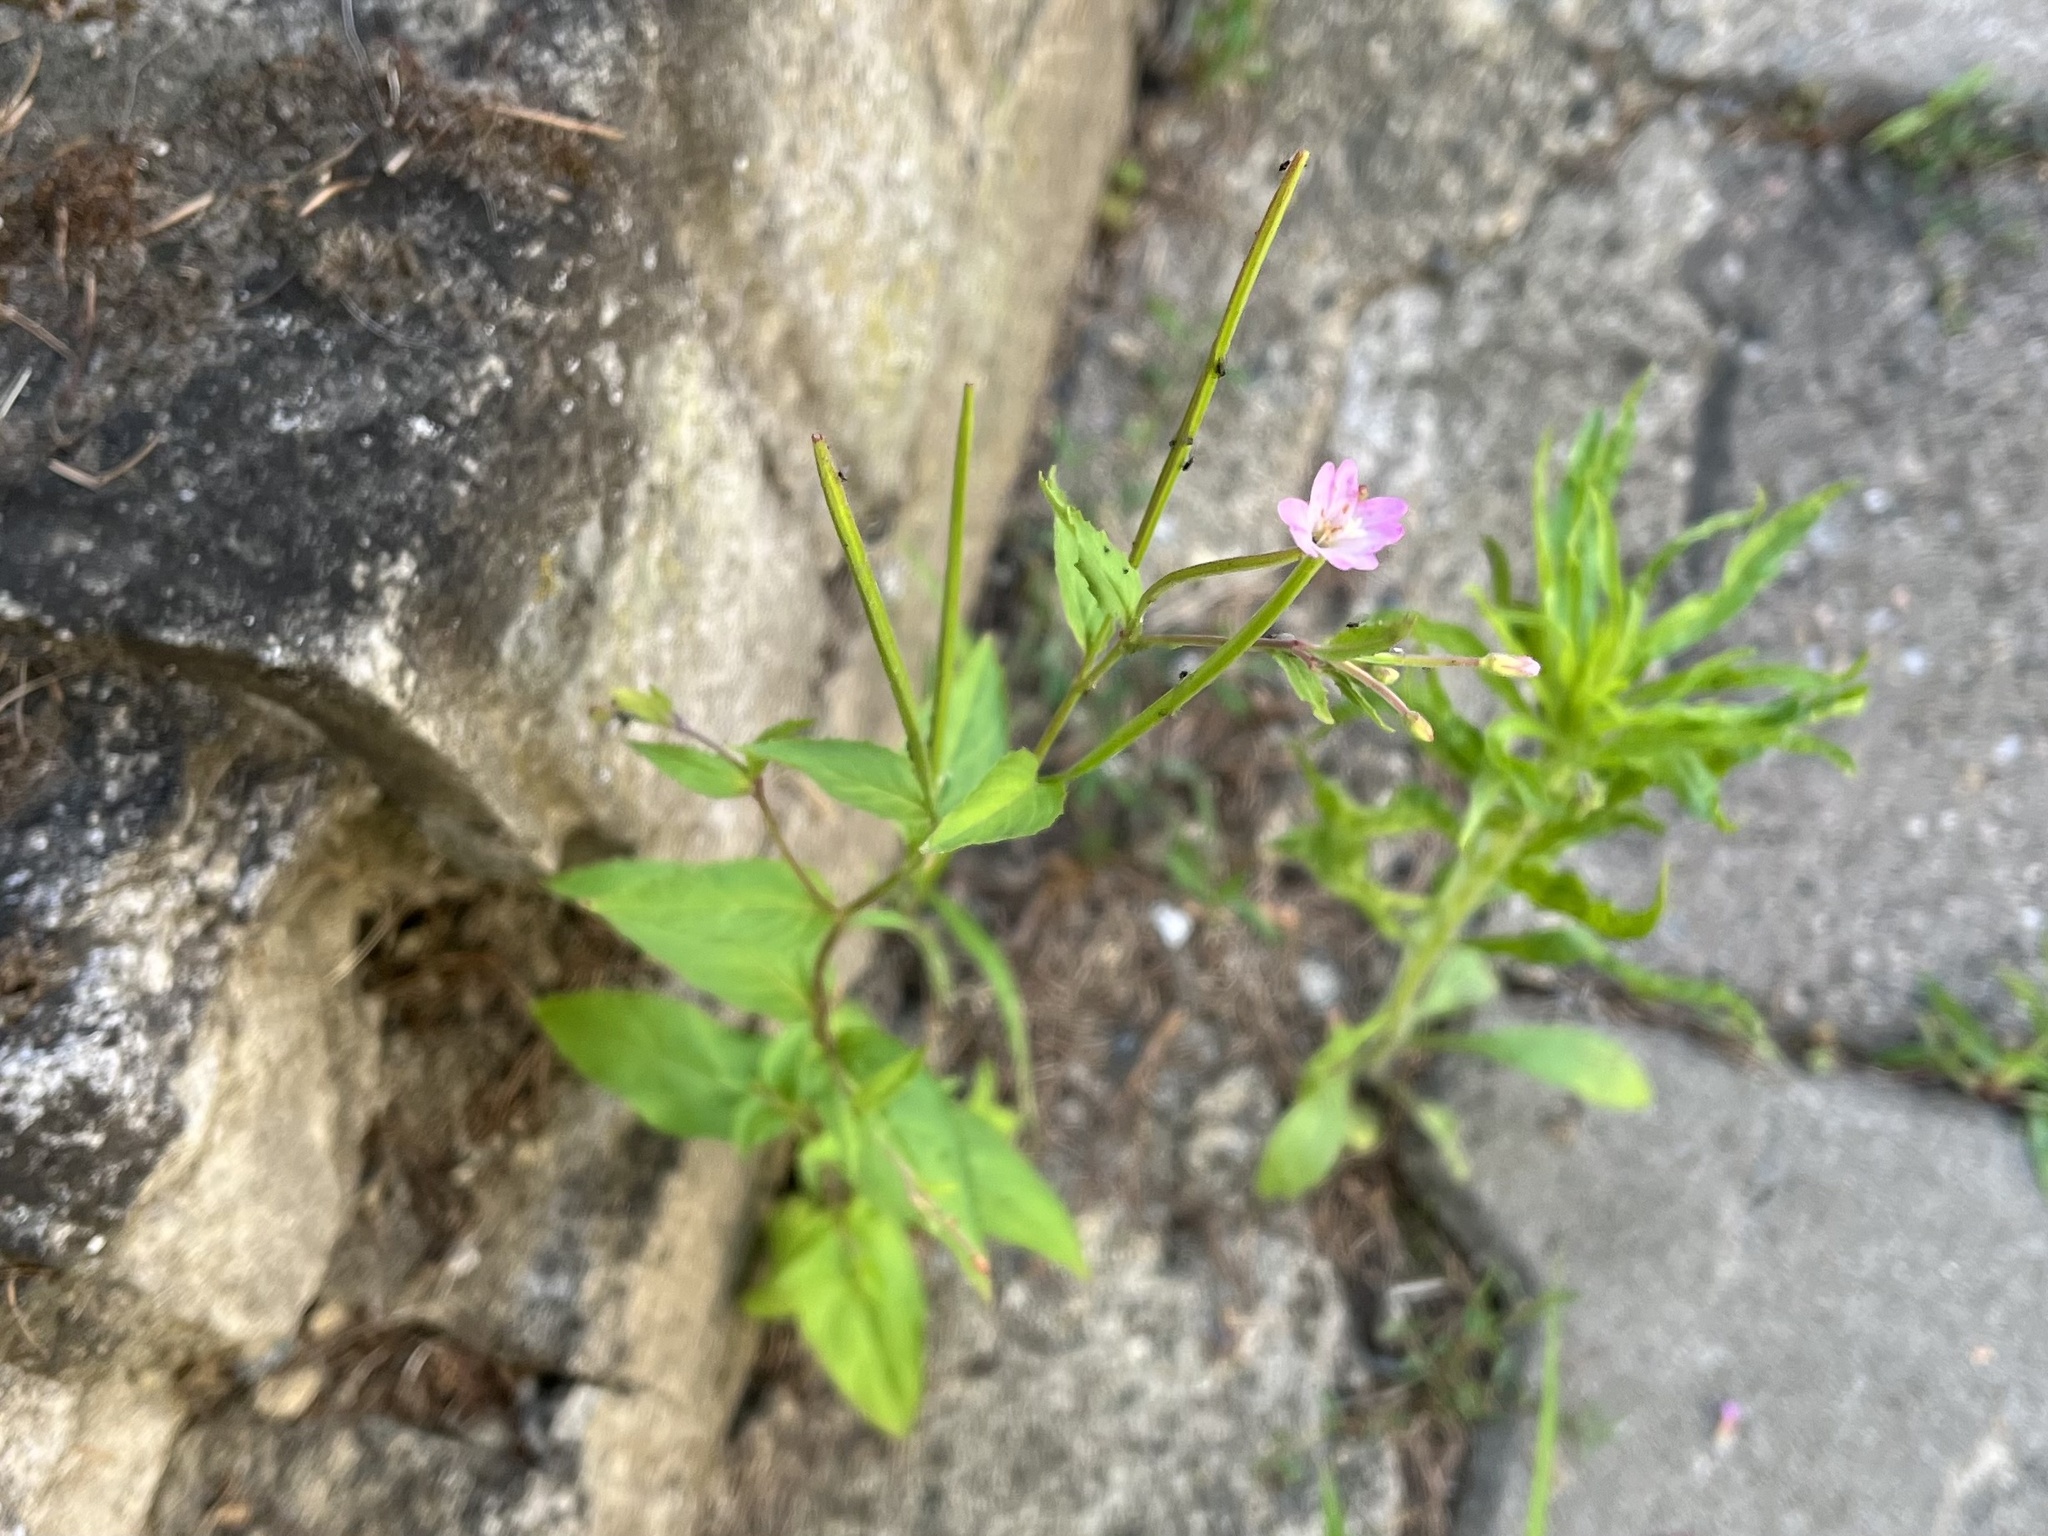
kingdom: Plantae
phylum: Tracheophyta
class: Magnoliopsida
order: Myrtales
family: Onagraceae
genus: Epilobium
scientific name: Epilobium montanum
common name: Broad-leaved willowherb
